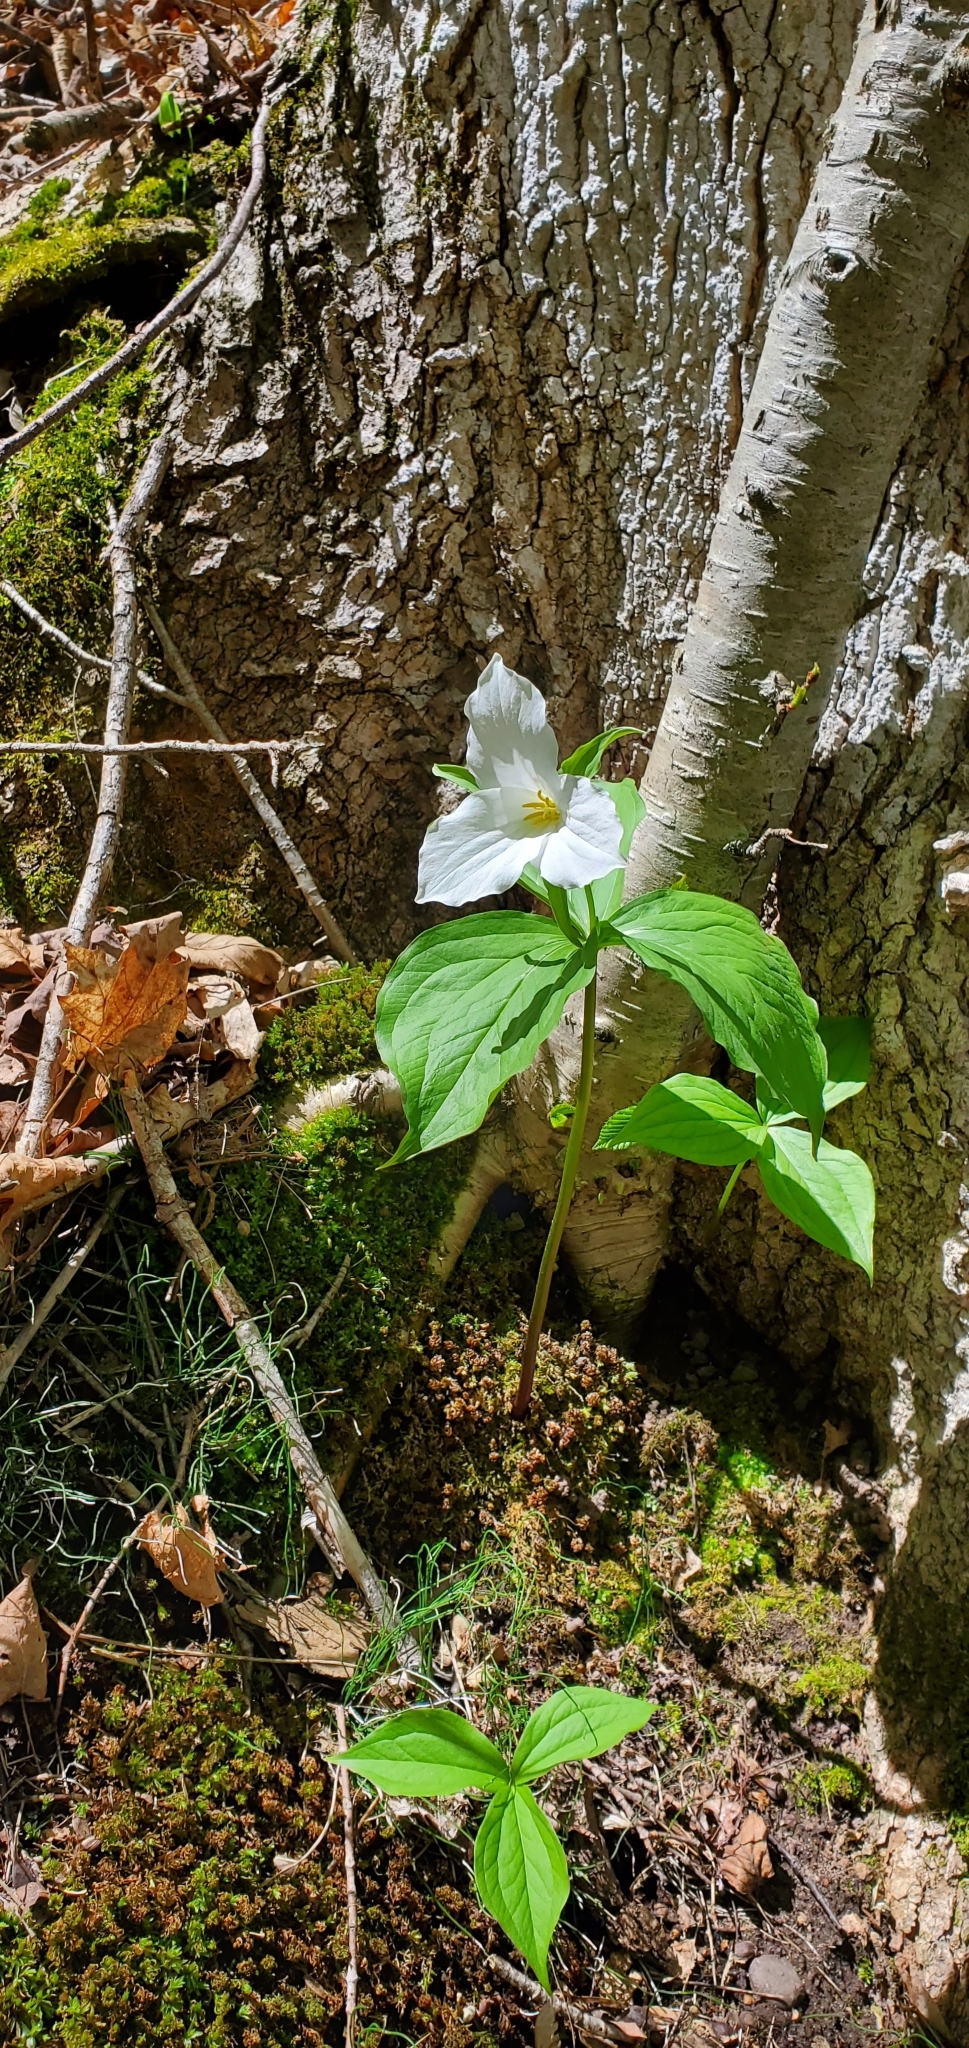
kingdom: Plantae
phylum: Tracheophyta
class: Liliopsida
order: Liliales
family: Melanthiaceae
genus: Trillium
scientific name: Trillium grandiflorum
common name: Great white trillium
